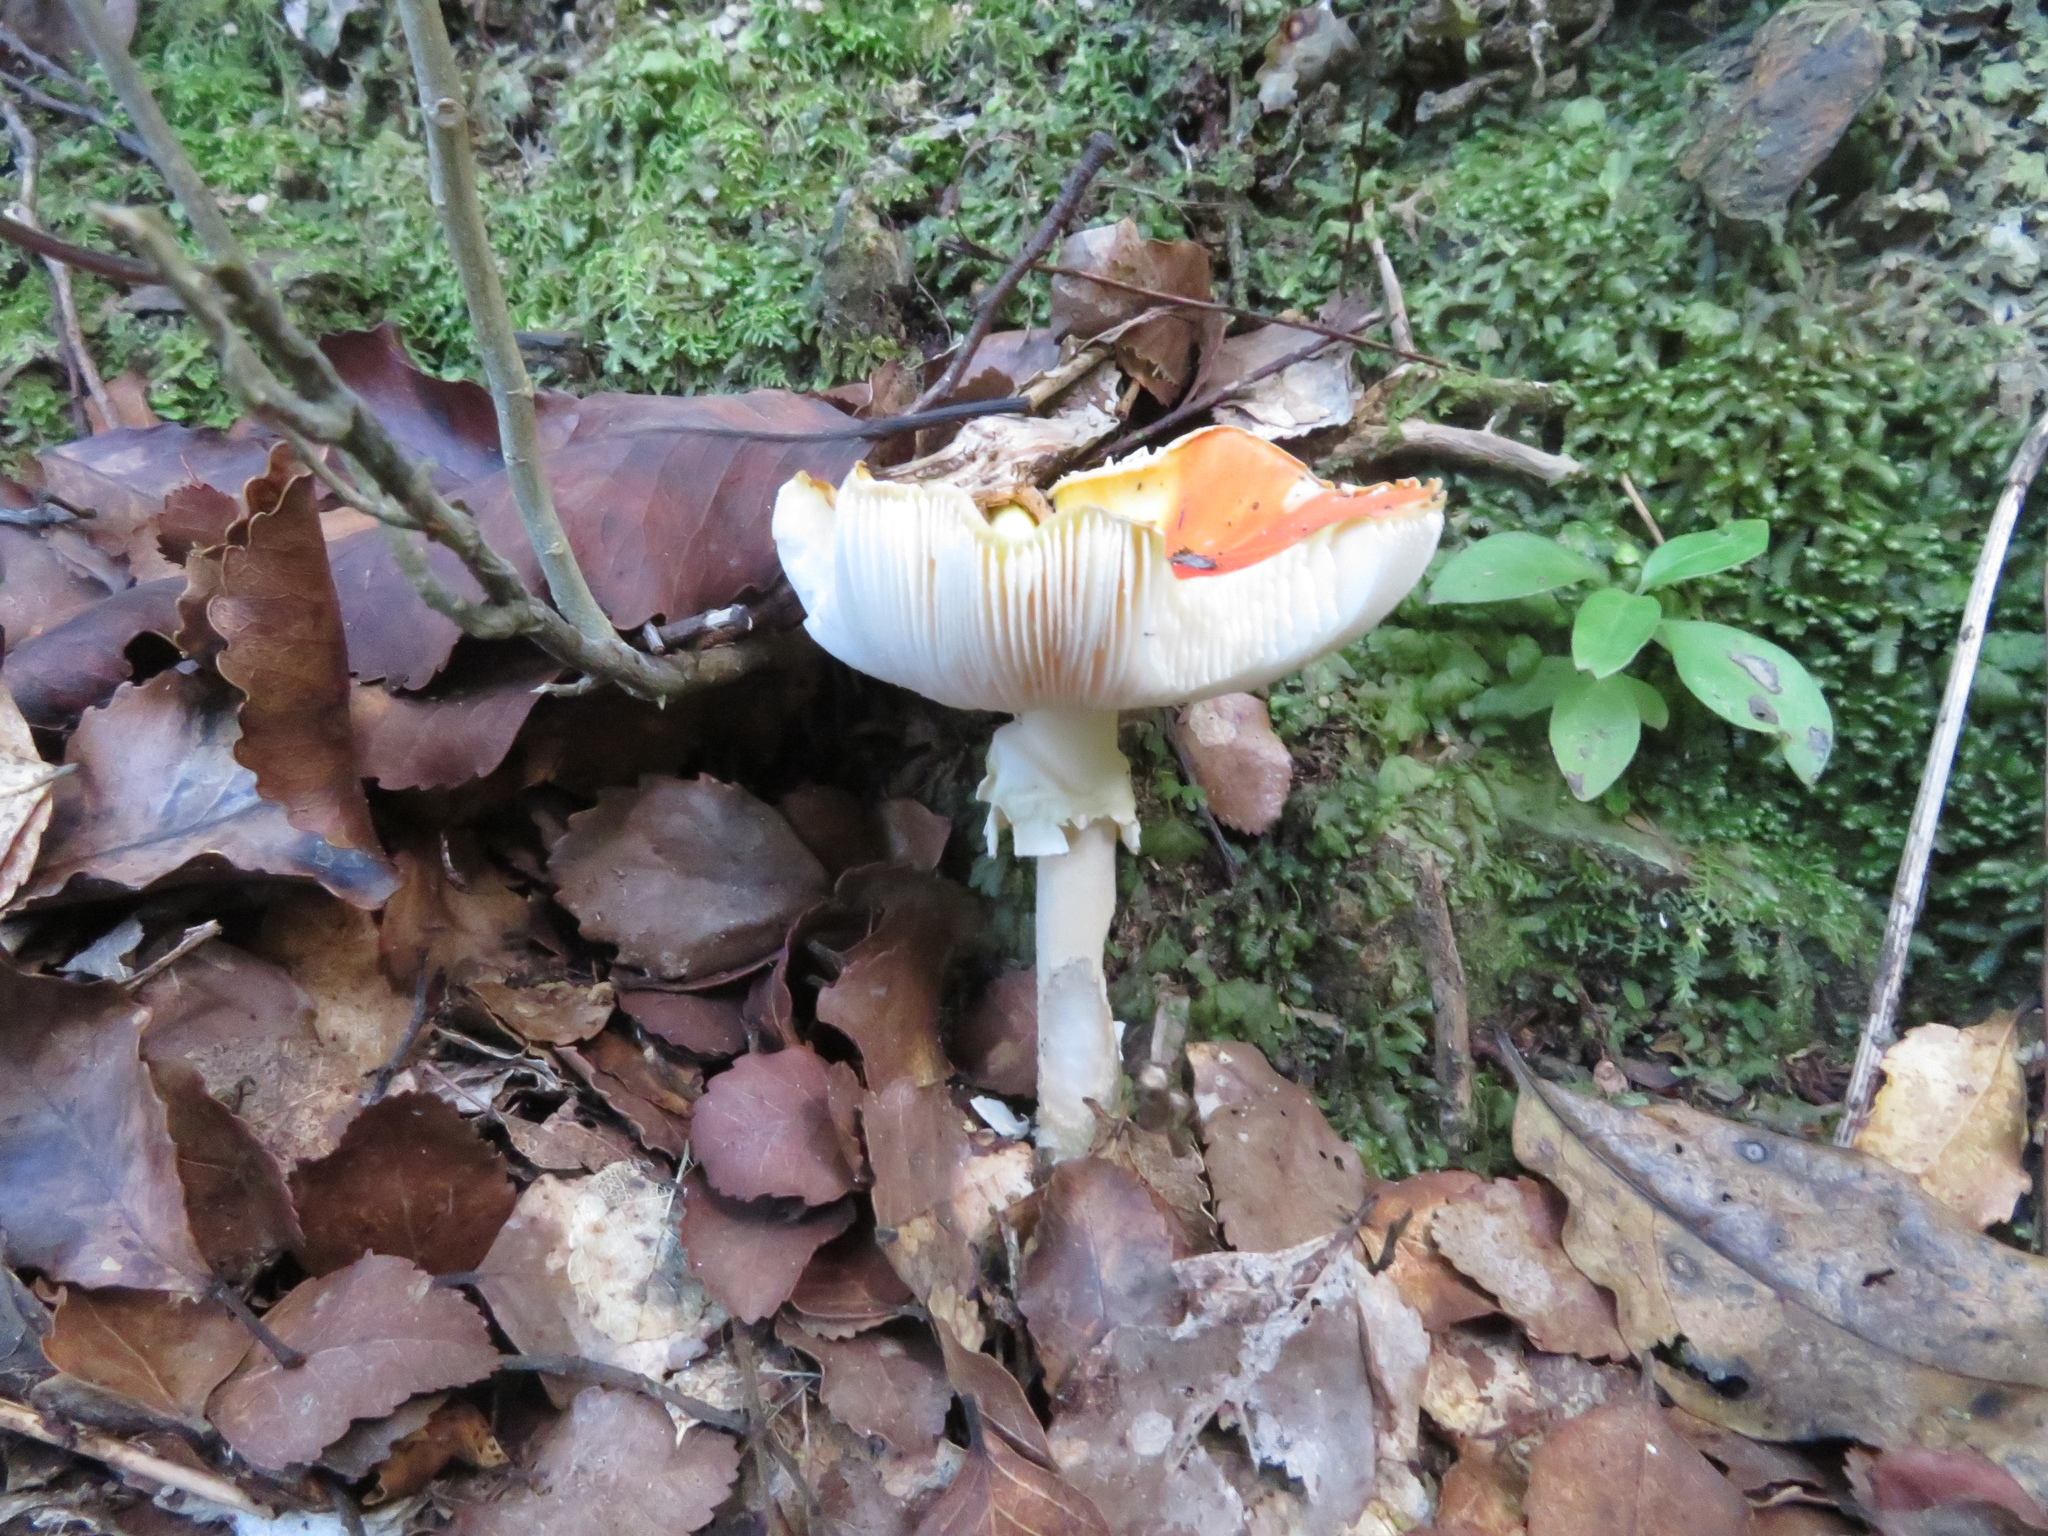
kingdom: Fungi
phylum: Basidiomycota
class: Agaricomycetes
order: Agaricales
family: Amanitaceae
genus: Amanita
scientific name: Amanita muscaria
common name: Fly agaric
